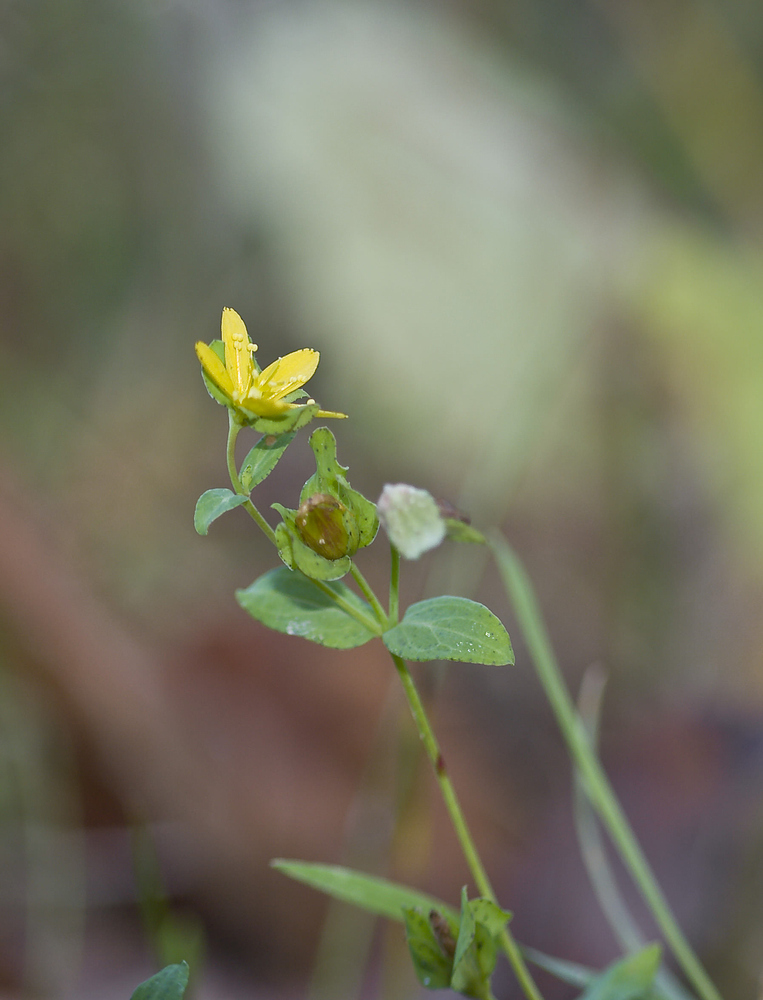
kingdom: Plantae
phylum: Tracheophyta
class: Magnoliopsida
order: Malpighiales
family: Hypericaceae
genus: Hypericum
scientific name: Hypericum humifusum
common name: Trailing st. john's-wort
